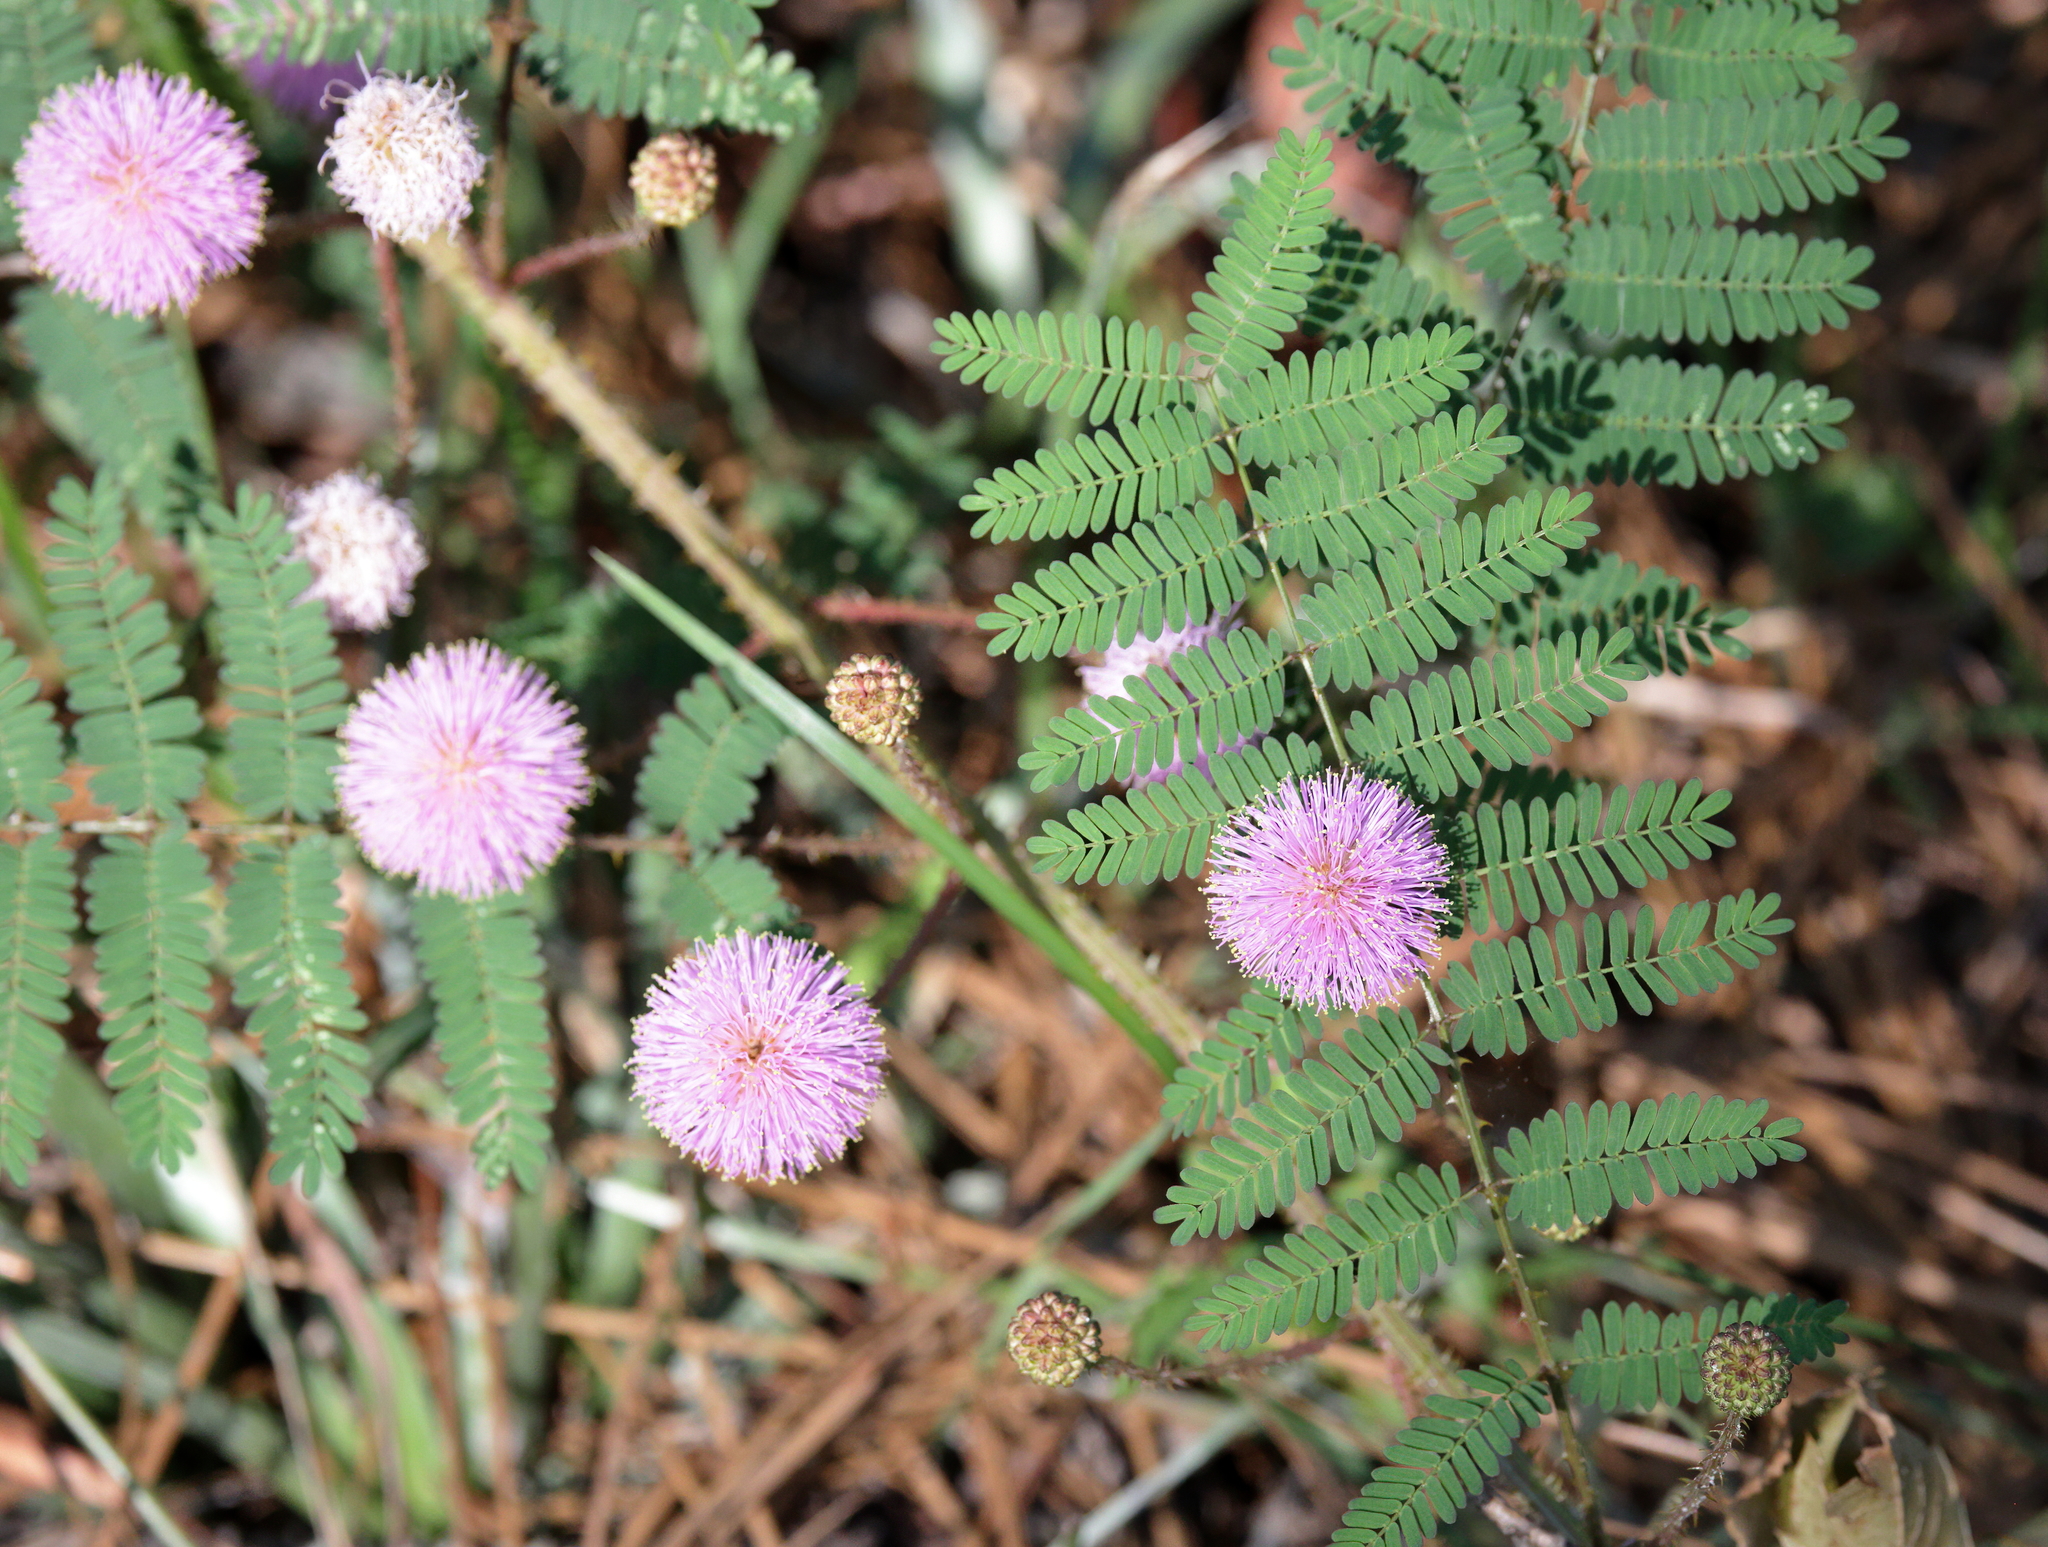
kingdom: Plantae
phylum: Tracheophyta
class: Magnoliopsida
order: Fabales
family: Fabaceae
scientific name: Fabaceae
